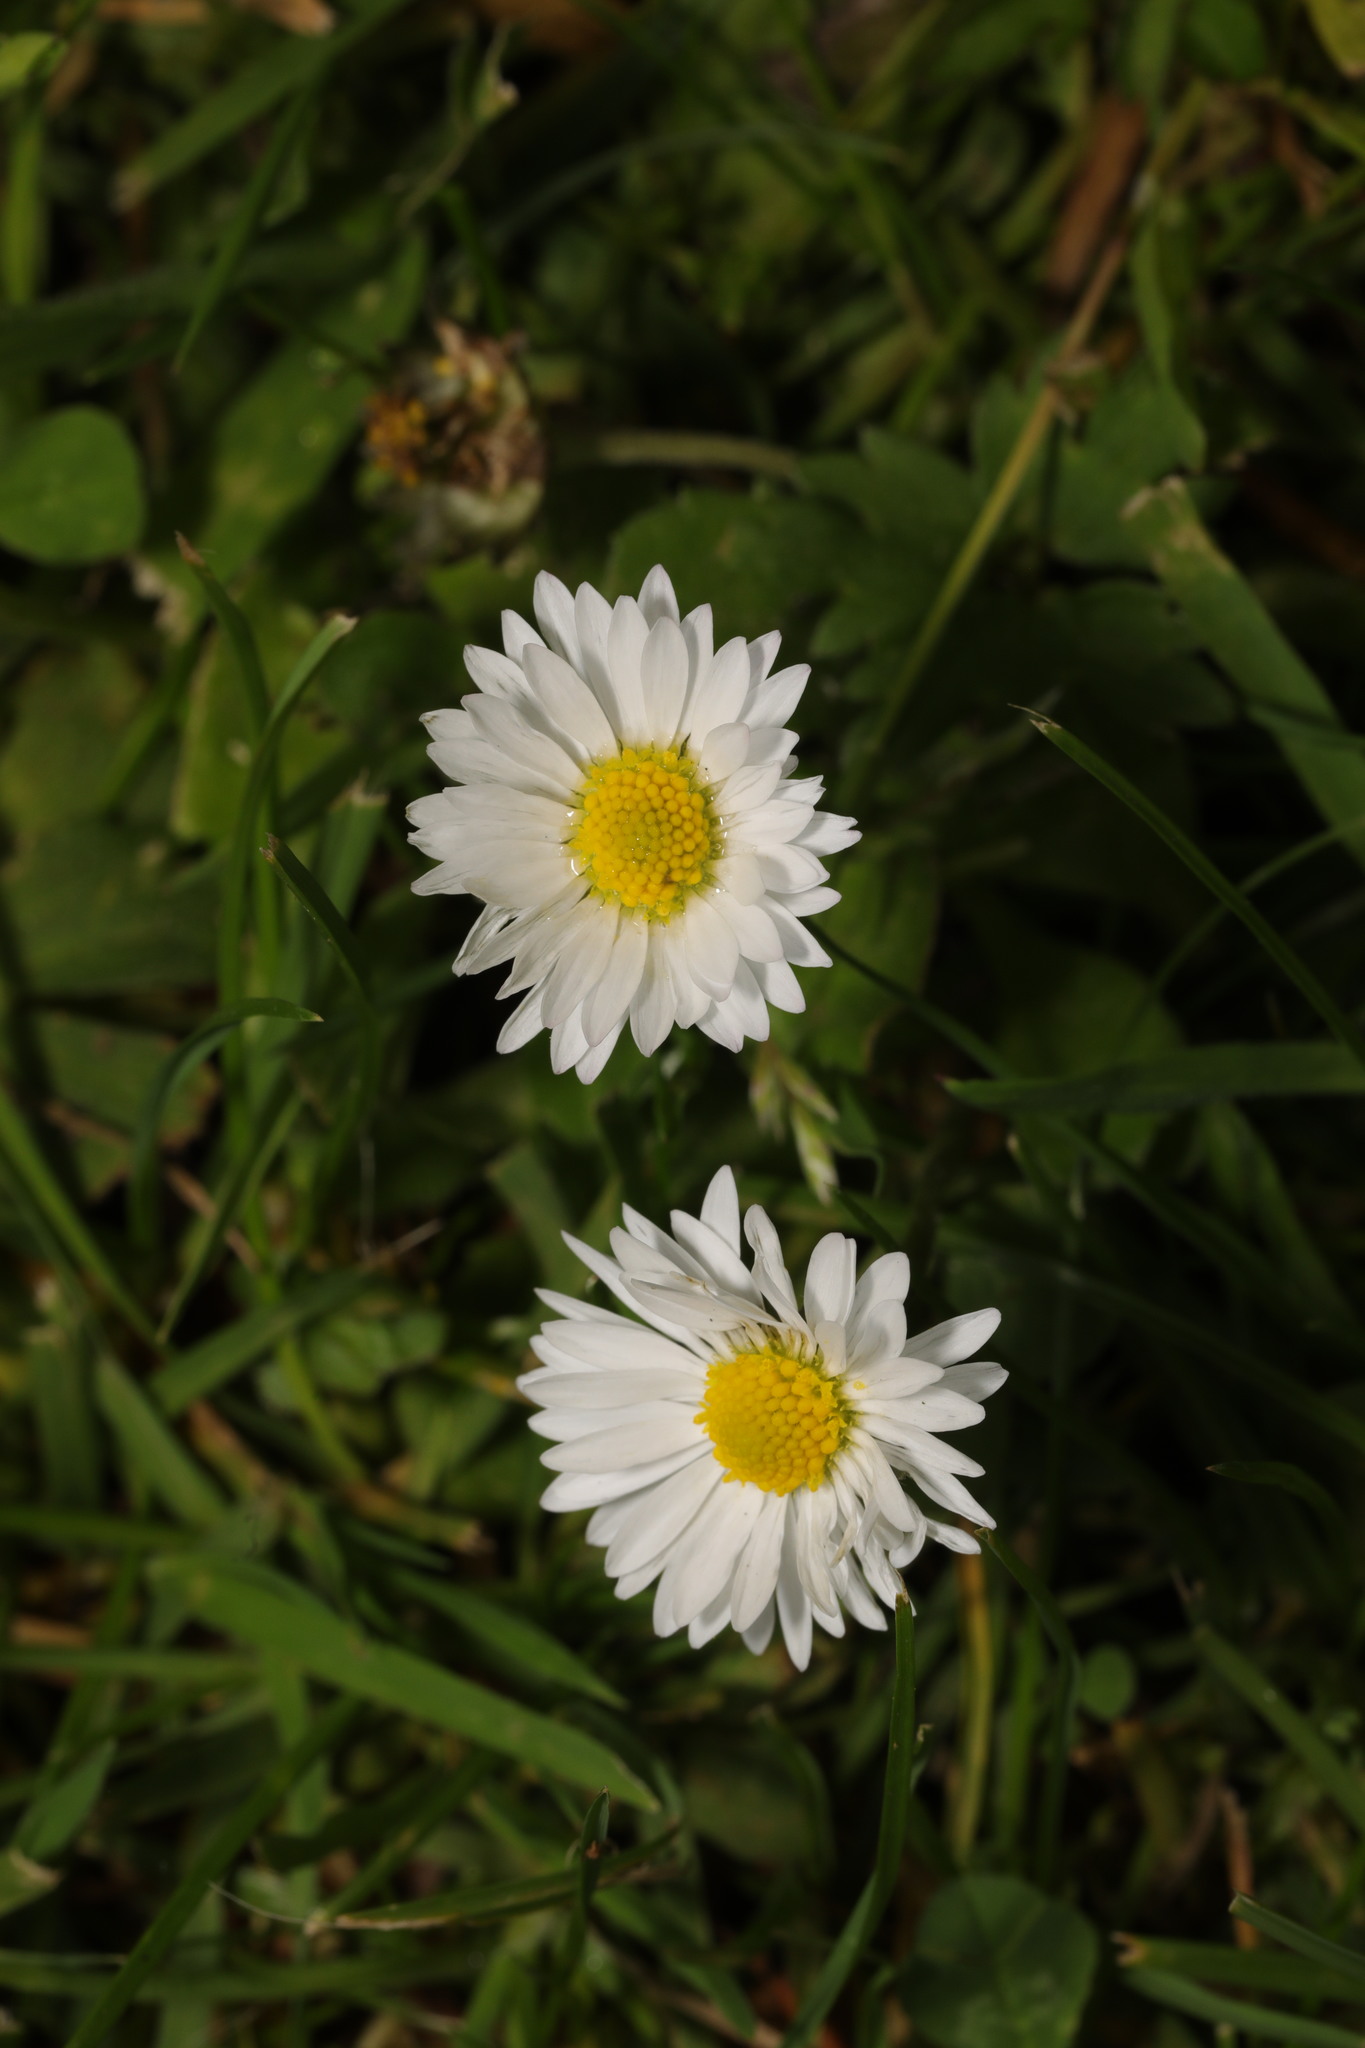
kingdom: Plantae
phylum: Tracheophyta
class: Magnoliopsida
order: Asterales
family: Asteraceae
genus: Bellis
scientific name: Bellis perennis
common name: Lawndaisy
